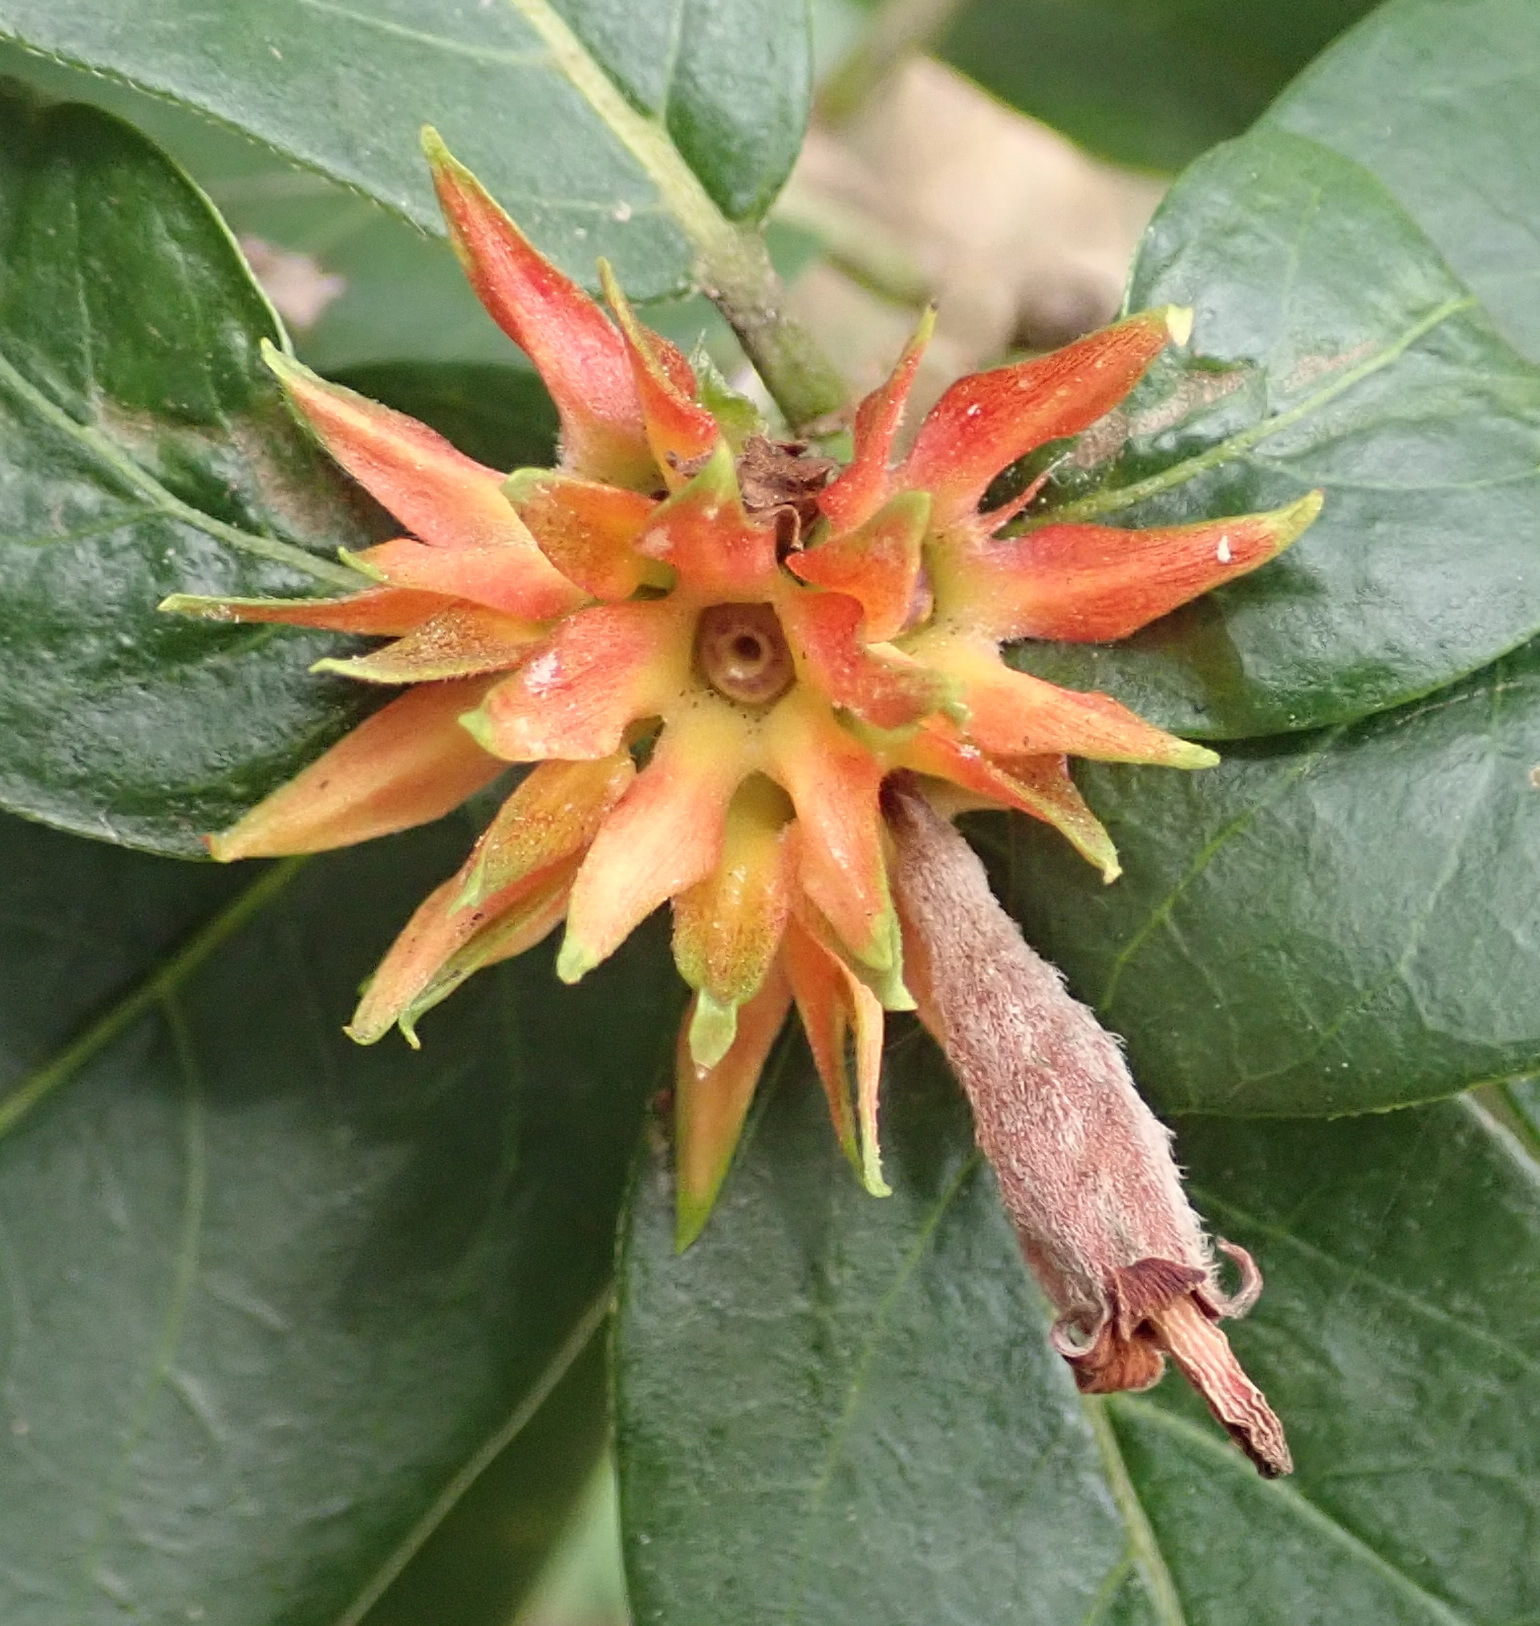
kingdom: Plantae
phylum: Tracheophyta
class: Magnoliopsida
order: Gentianales
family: Rubiaceae
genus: Burchellia
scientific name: Burchellia bubalina
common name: Wild pomegranate
